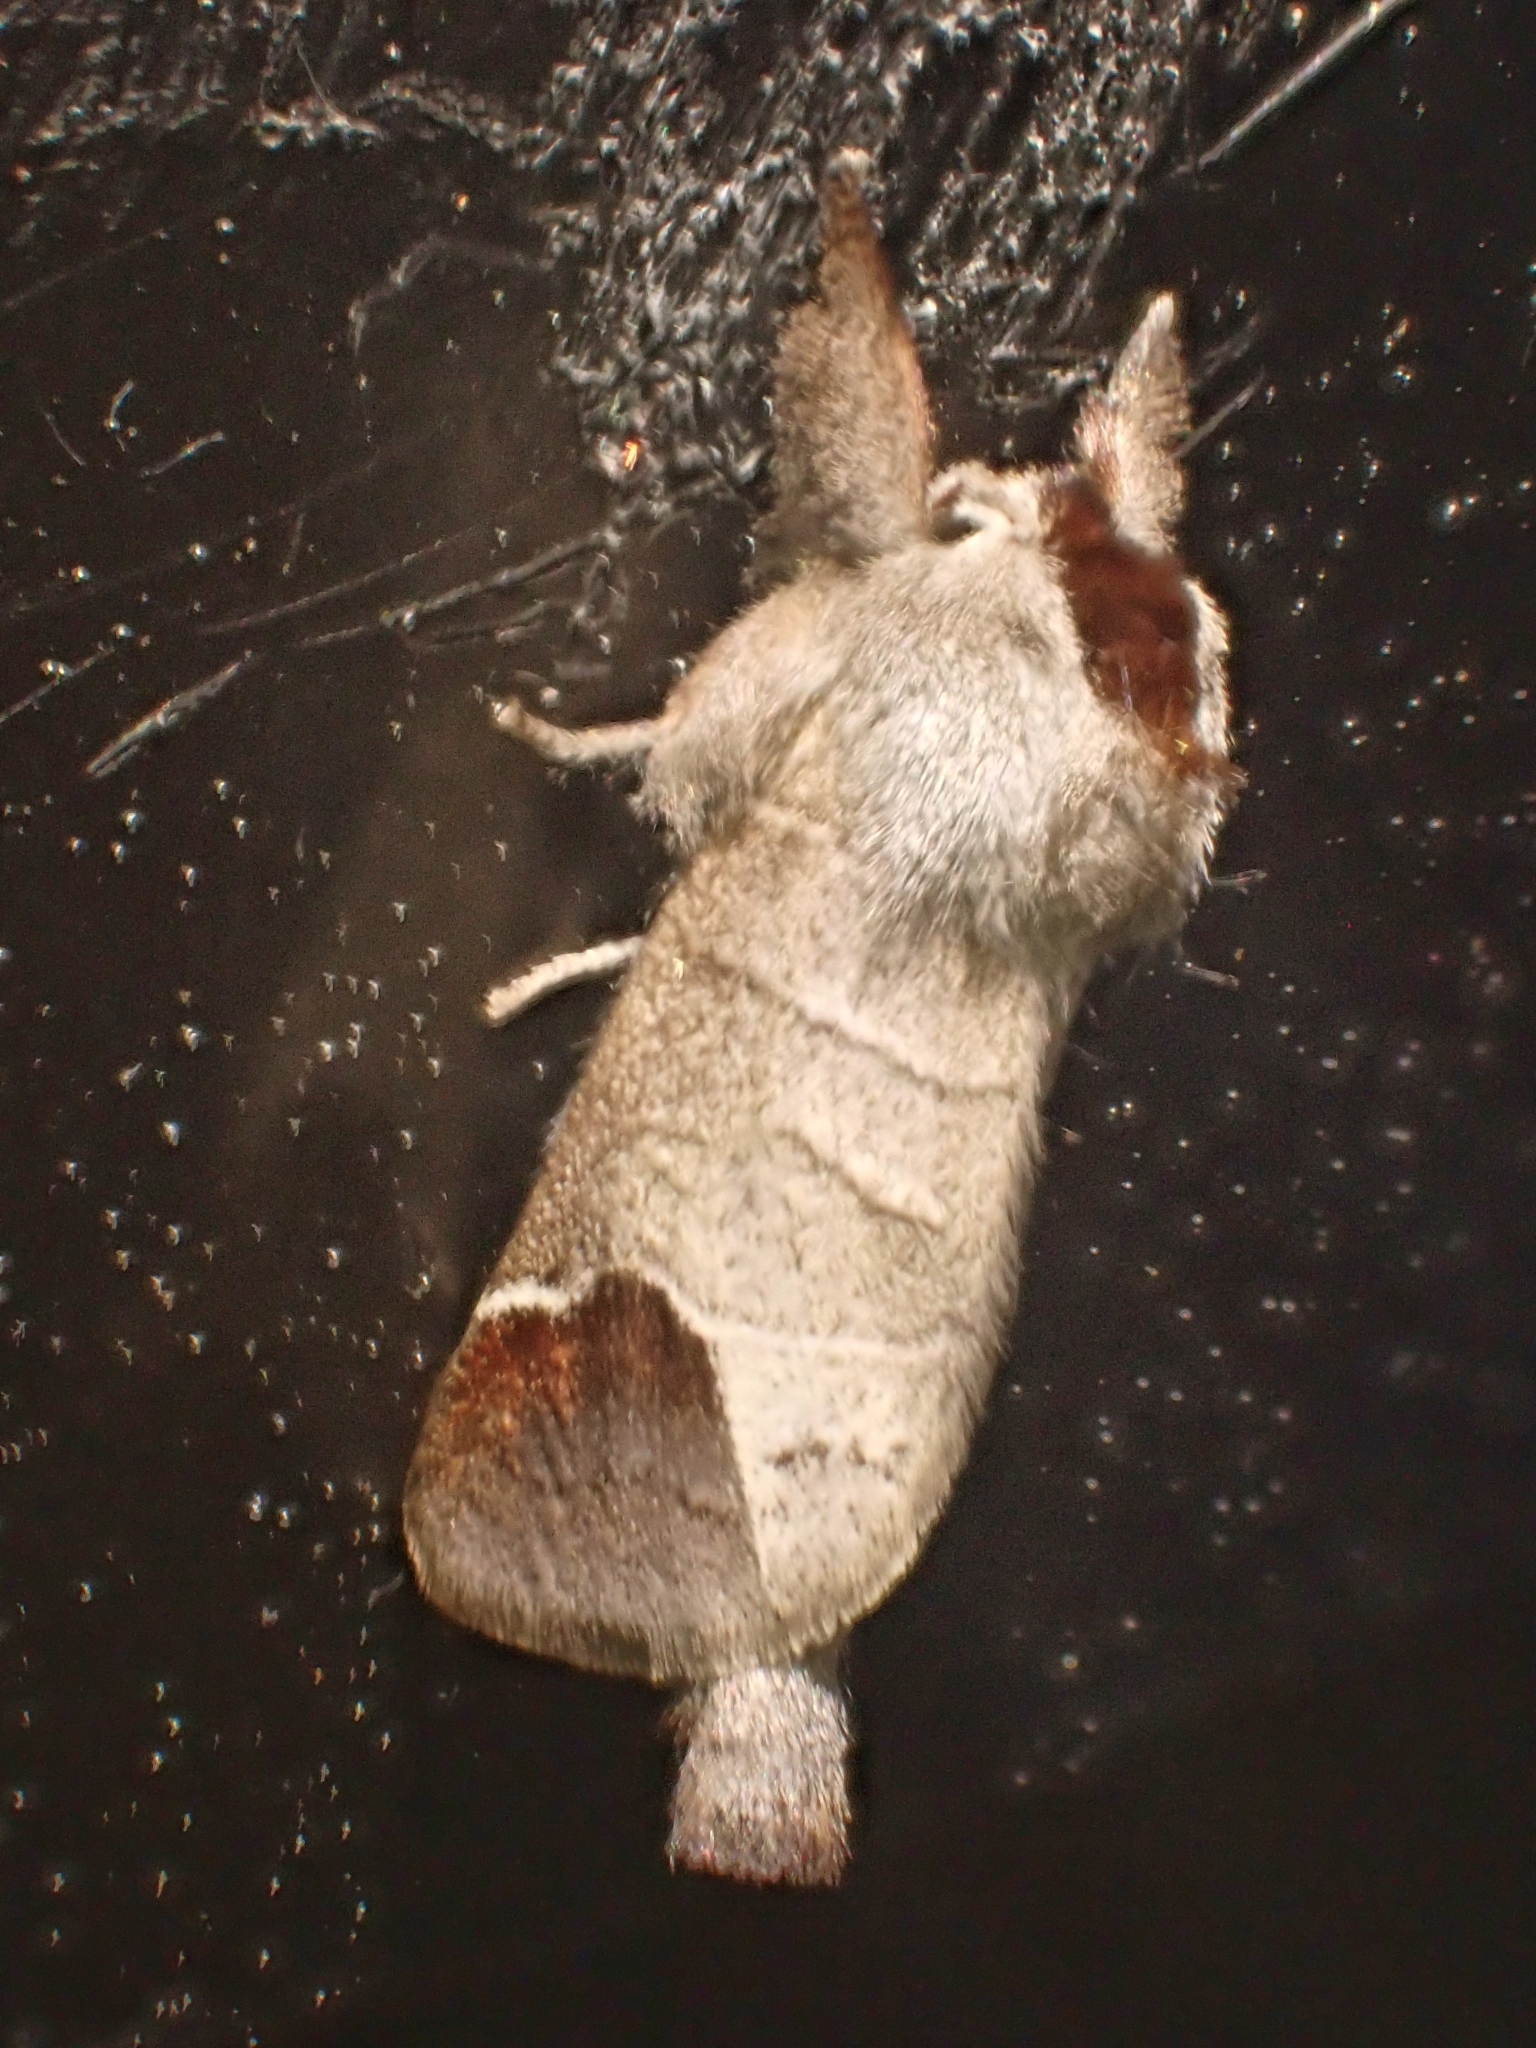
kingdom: Animalia
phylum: Arthropoda
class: Insecta
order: Lepidoptera
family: Notodontidae
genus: Clostera
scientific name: Clostera curtula
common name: Chocolate-tip
